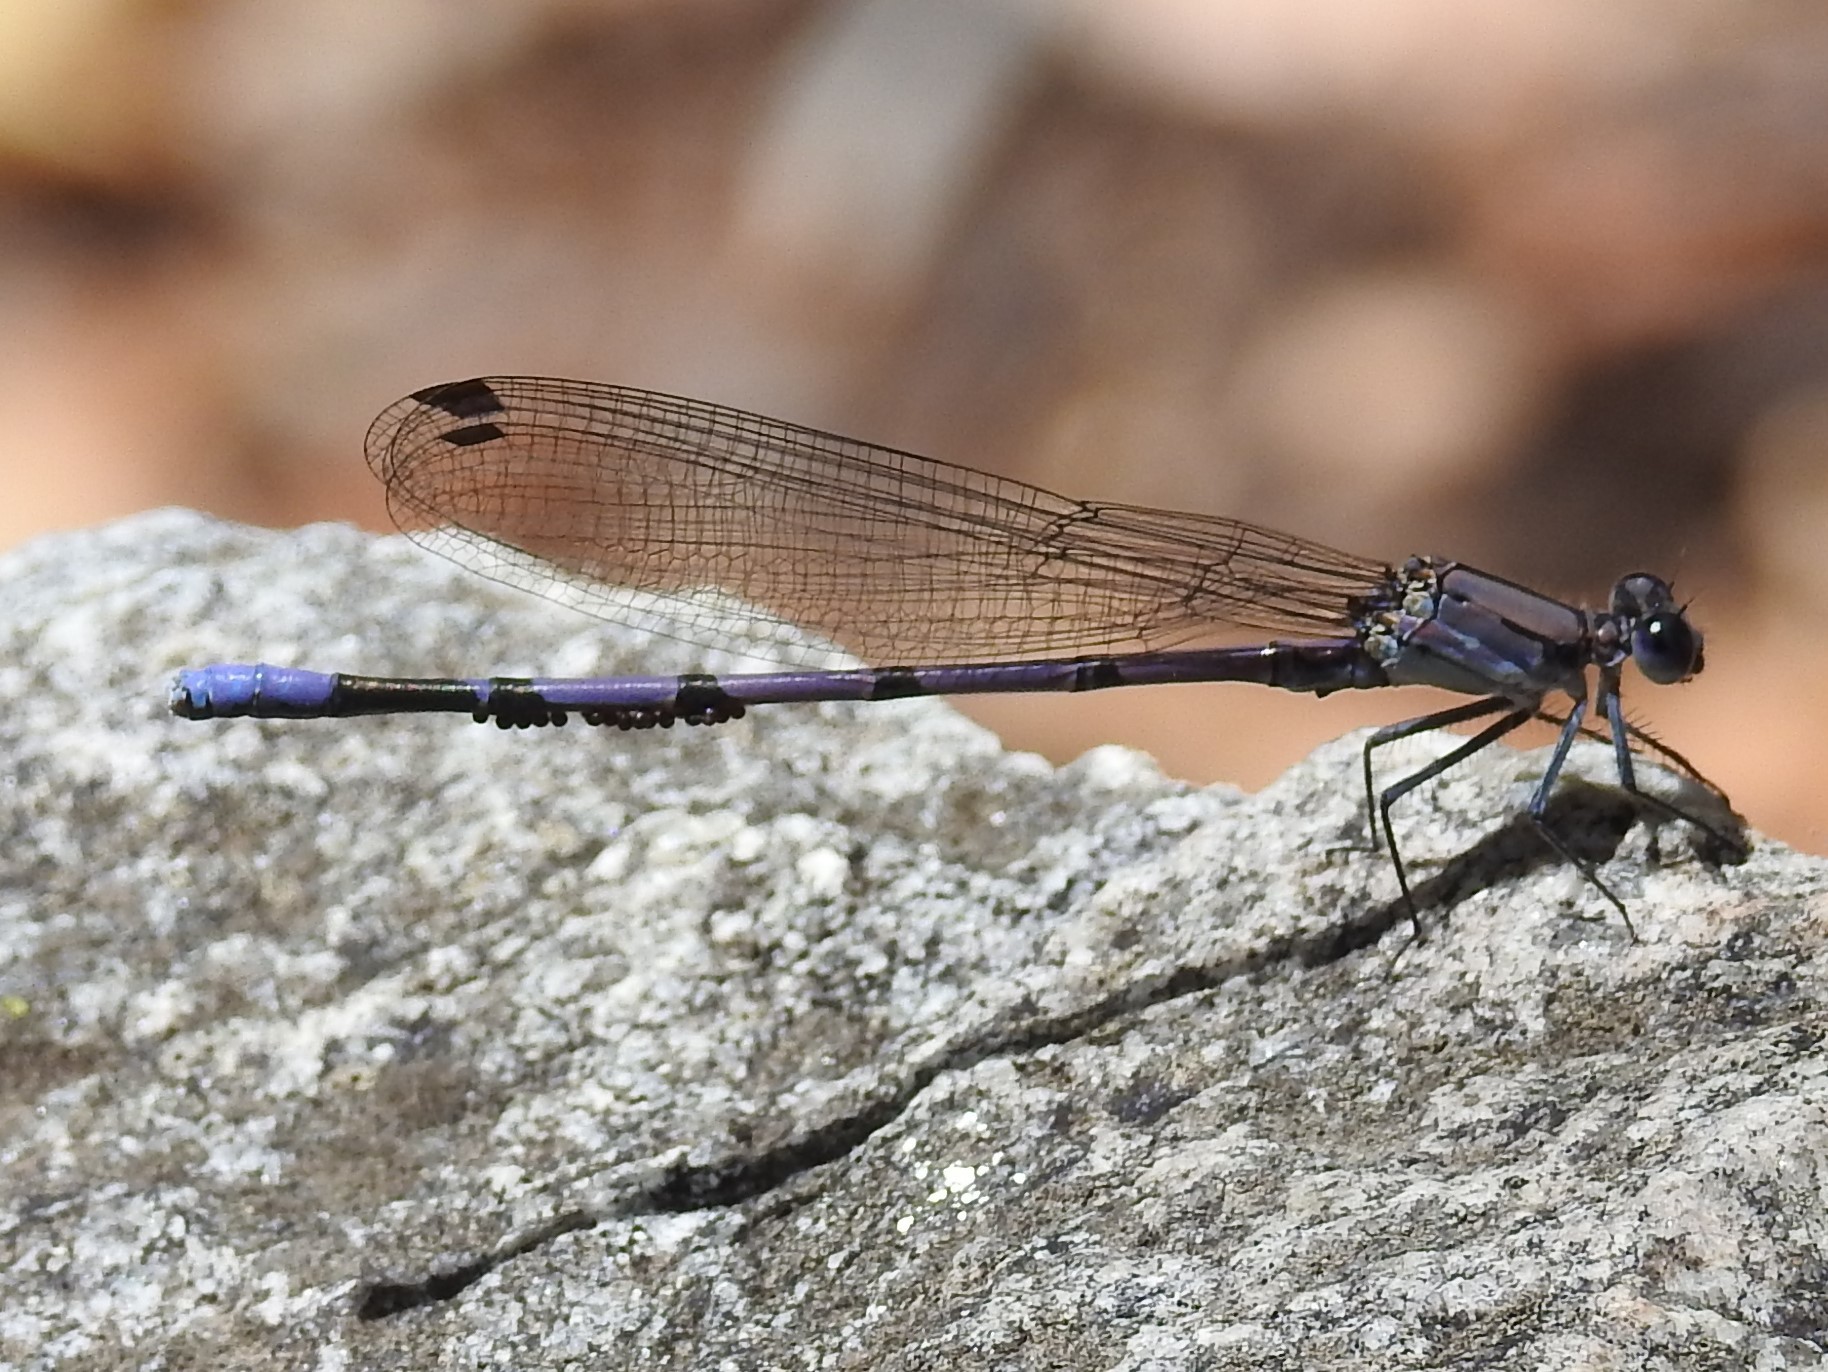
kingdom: Animalia
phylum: Arthropoda
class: Insecta
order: Odonata
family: Coenagrionidae
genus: Argia
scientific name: Argia tonto
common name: Tonto dancer
